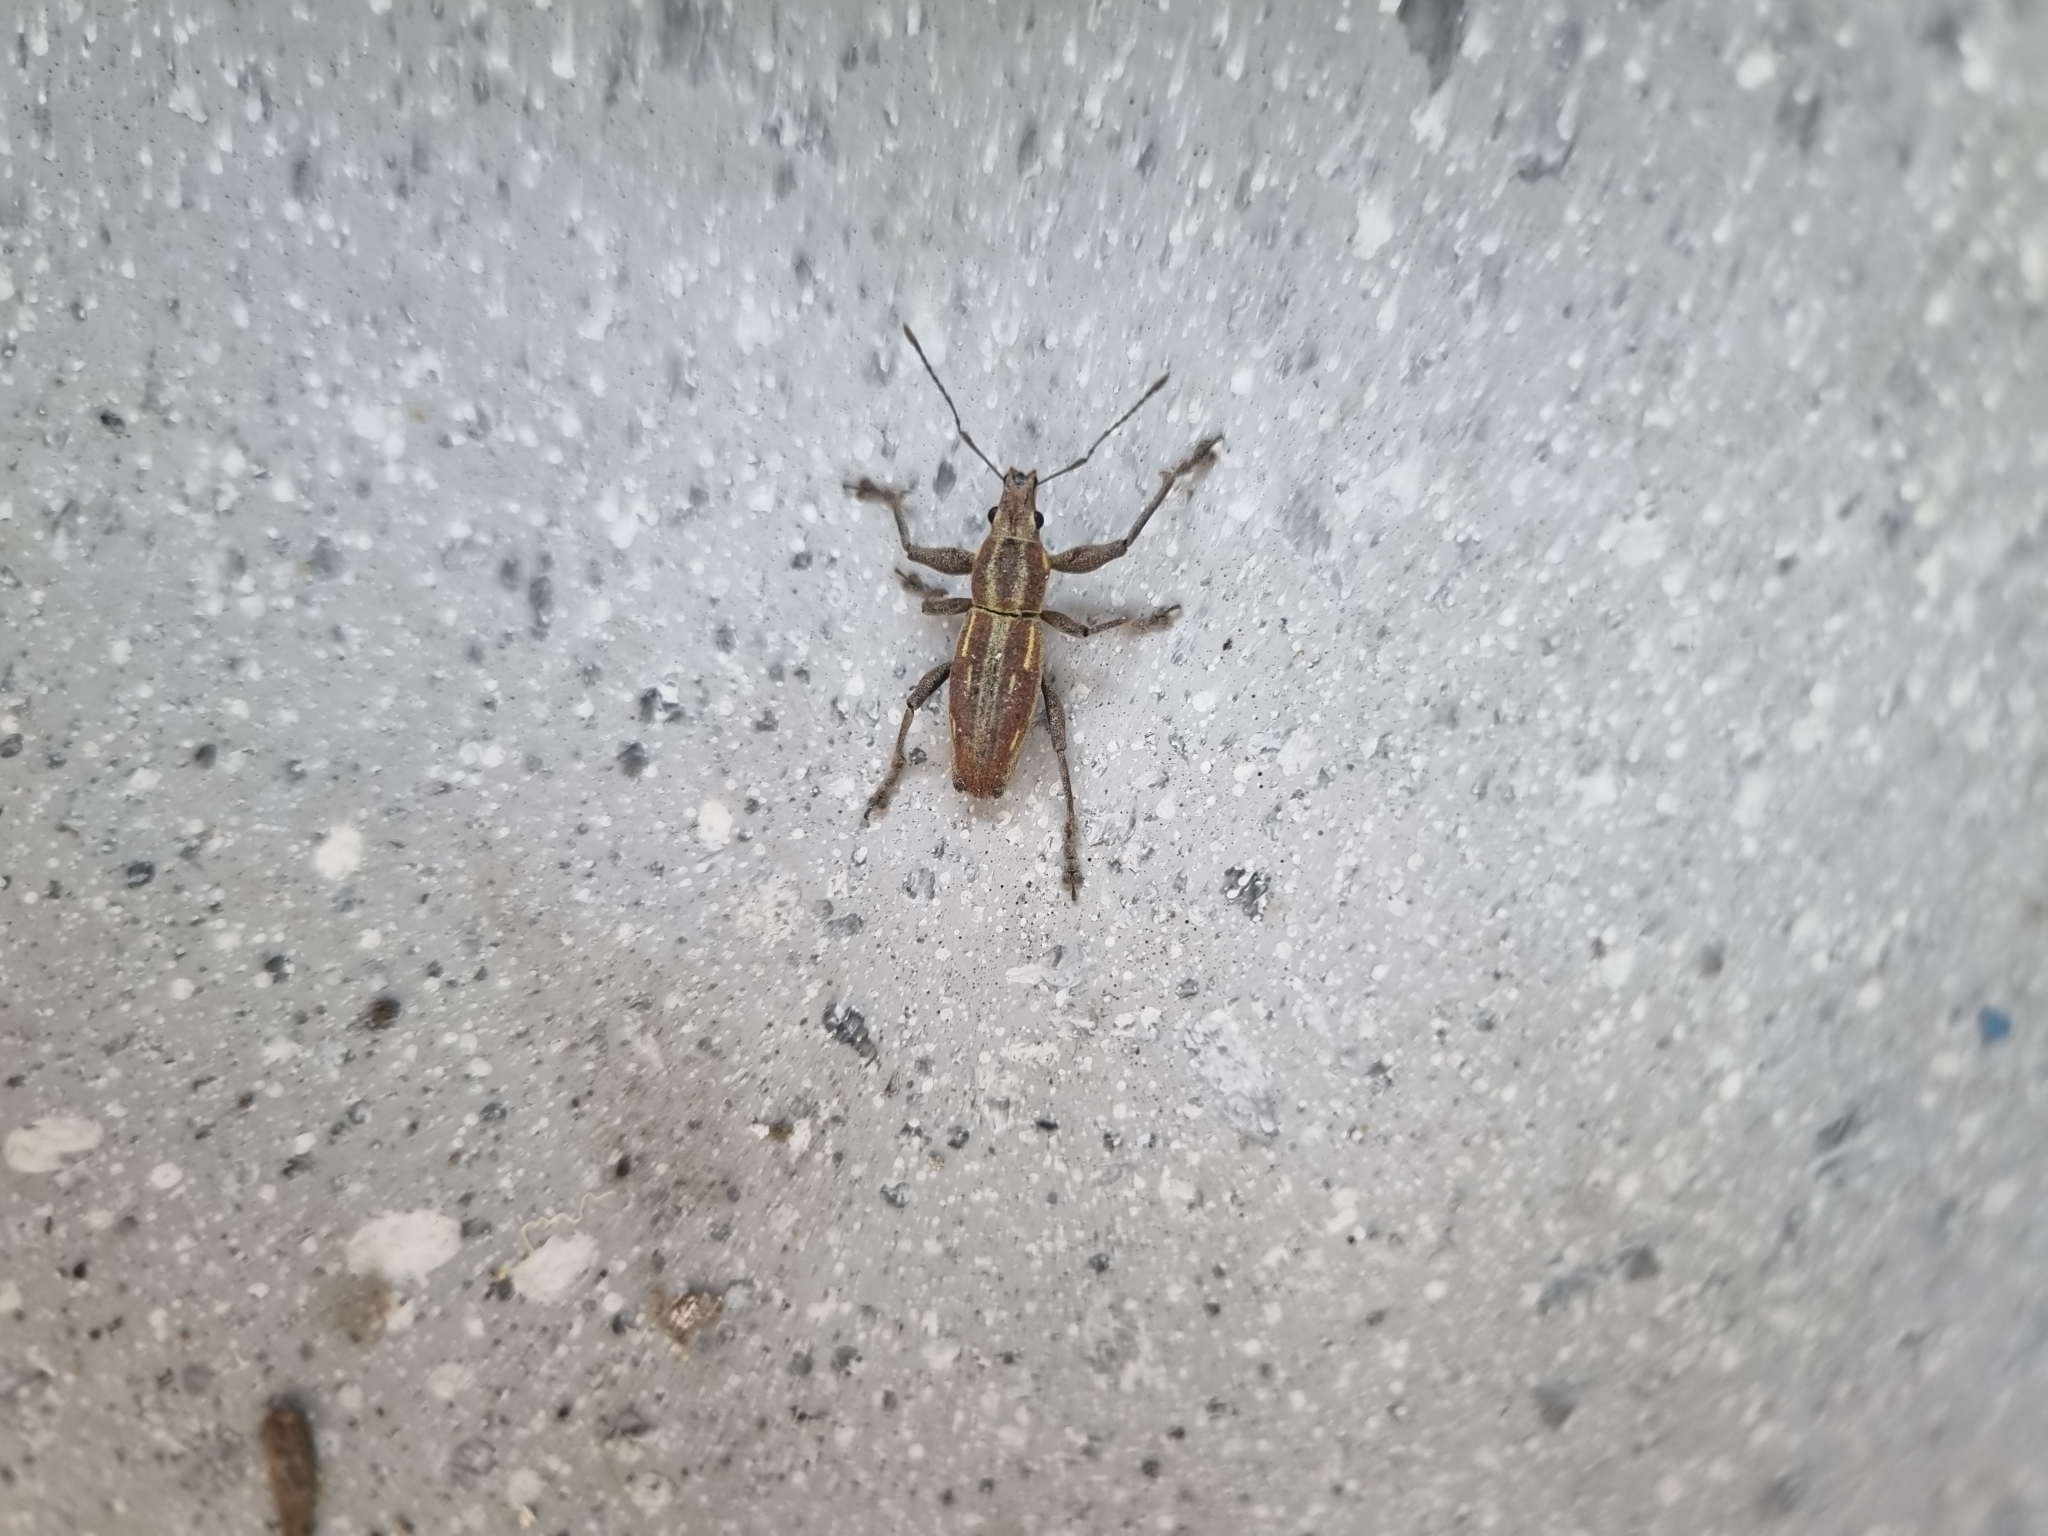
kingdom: Animalia
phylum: Arthropoda
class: Insecta
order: Coleoptera
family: Curculionidae
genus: Naupactus
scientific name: Naupactus xanthographus
